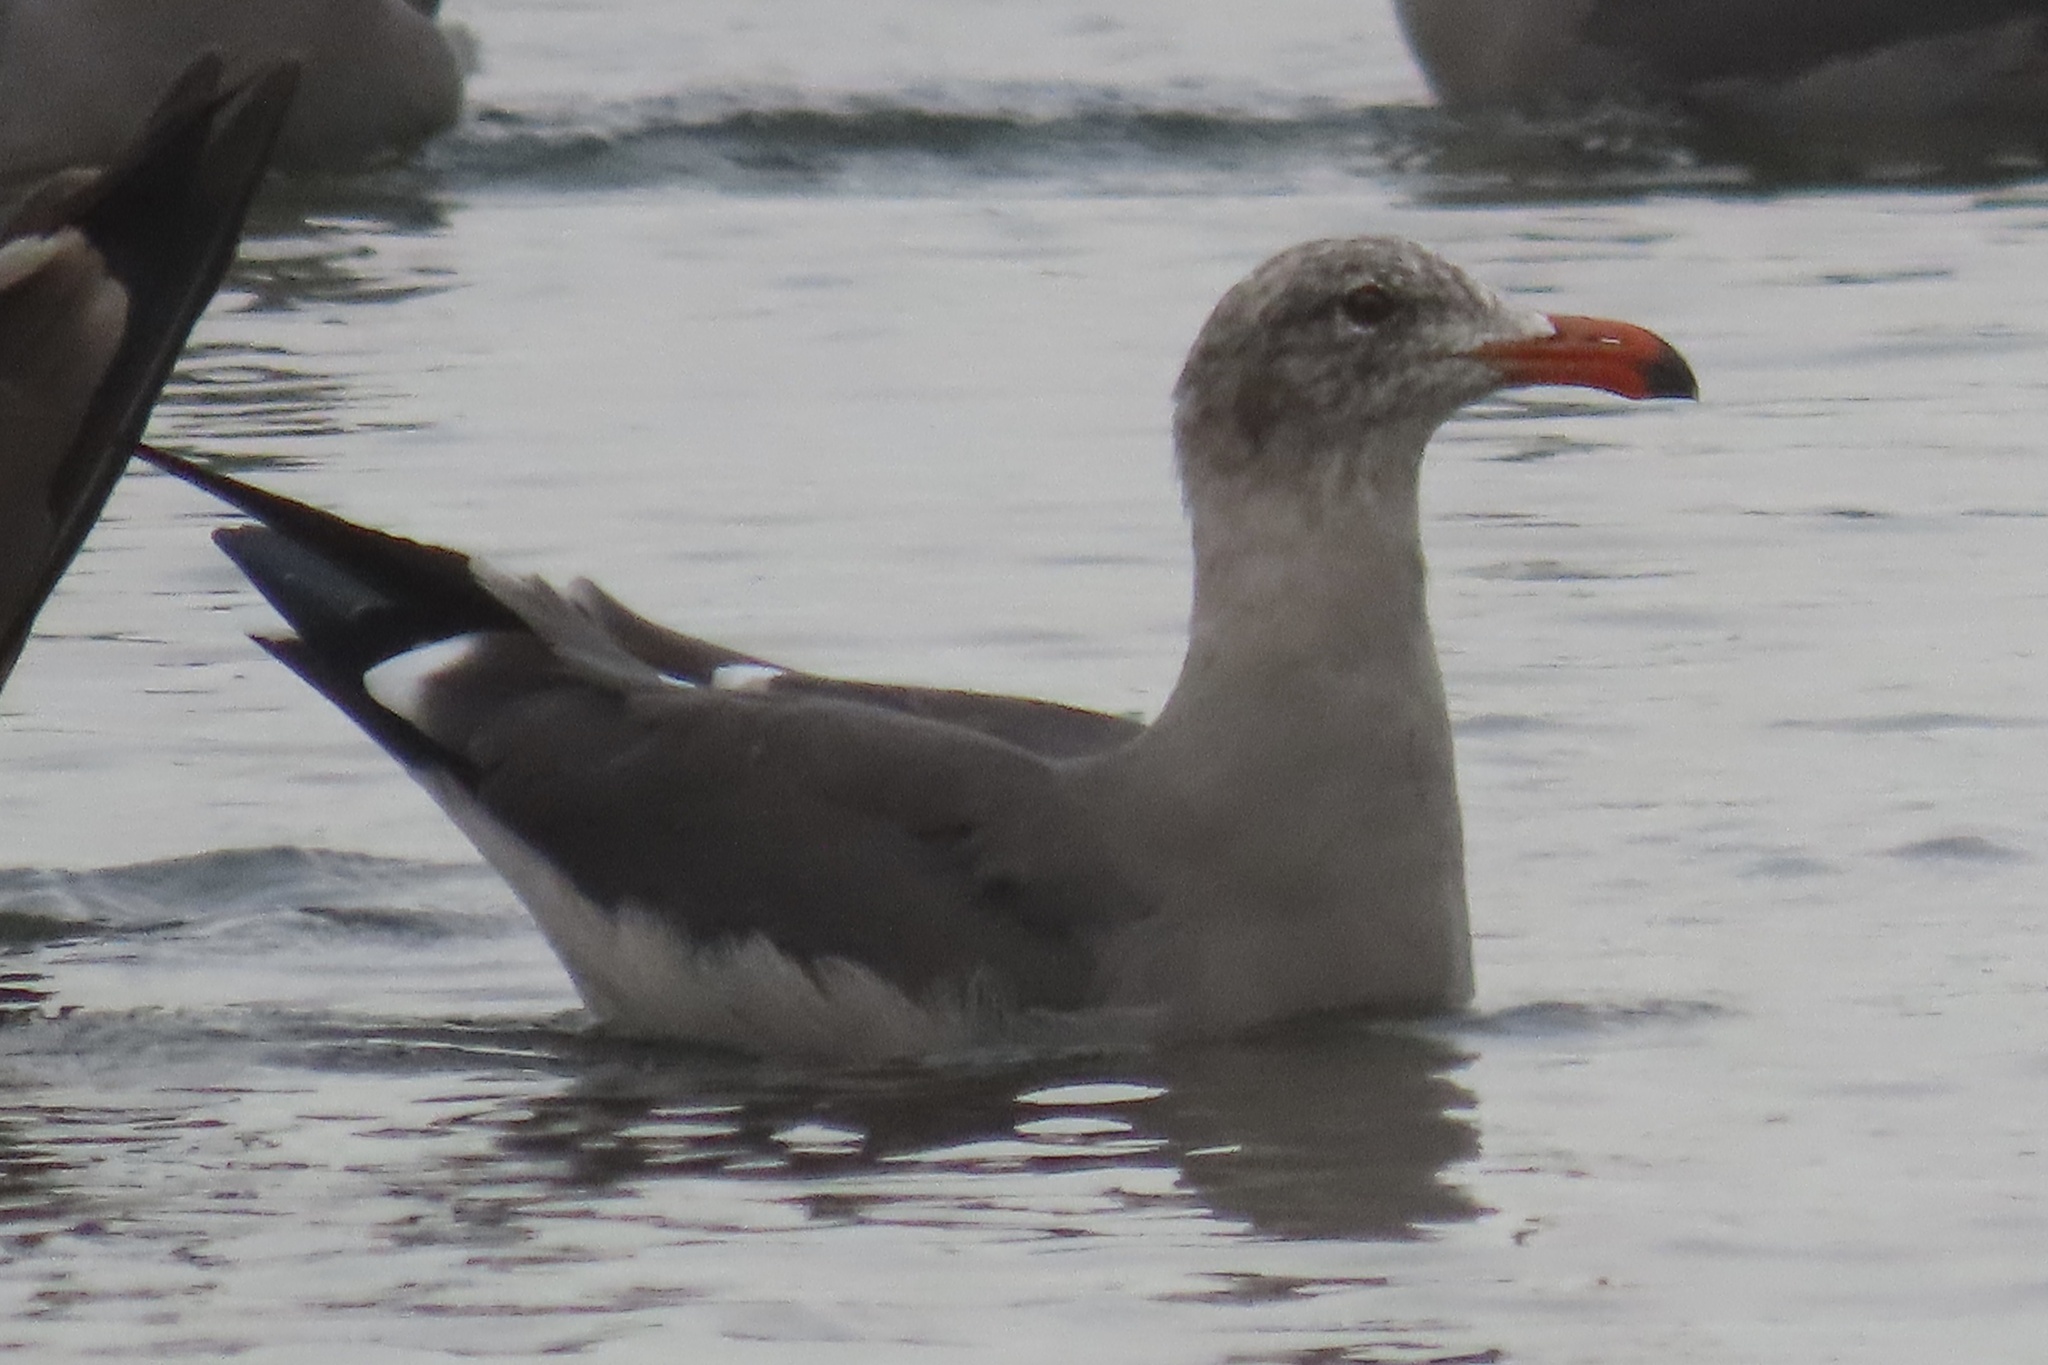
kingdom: Animalia
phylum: Chordata
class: Aves
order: Charadriiformes
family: Laridae
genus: Larus
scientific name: Larus heermanni
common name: Heermann's gull
